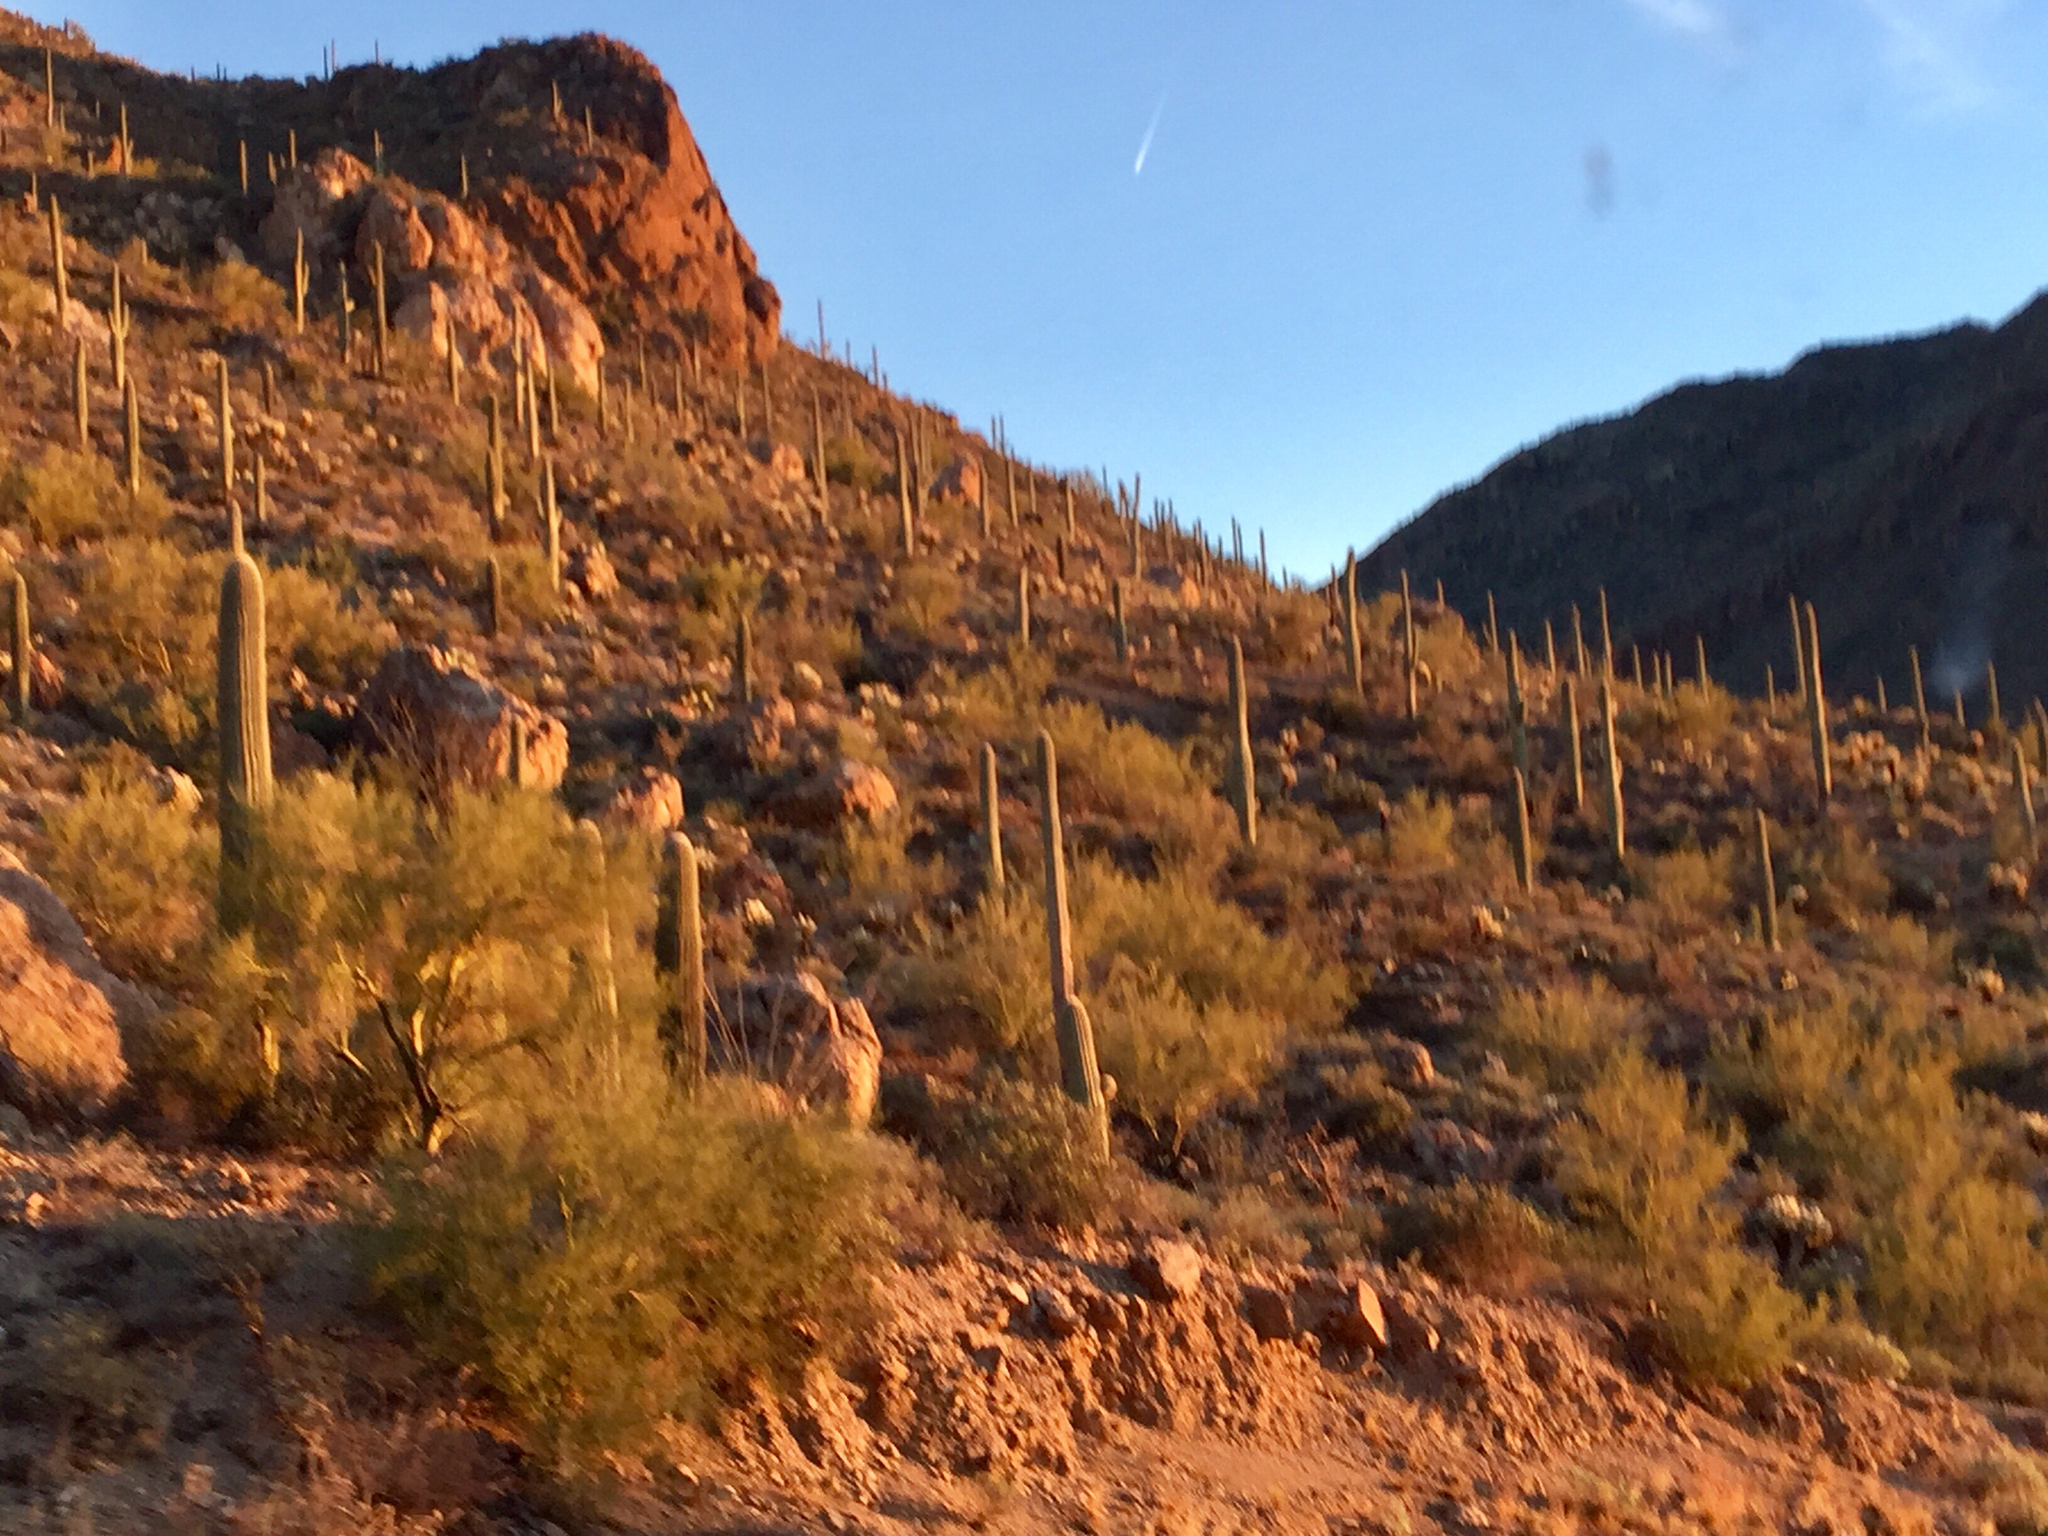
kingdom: Plantae
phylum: Tracheophyta
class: Magnoliopsida
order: Caryophyllales
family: Cactaceae
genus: Carnegiea
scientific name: Carnegiea gigantea
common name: Saguaro
